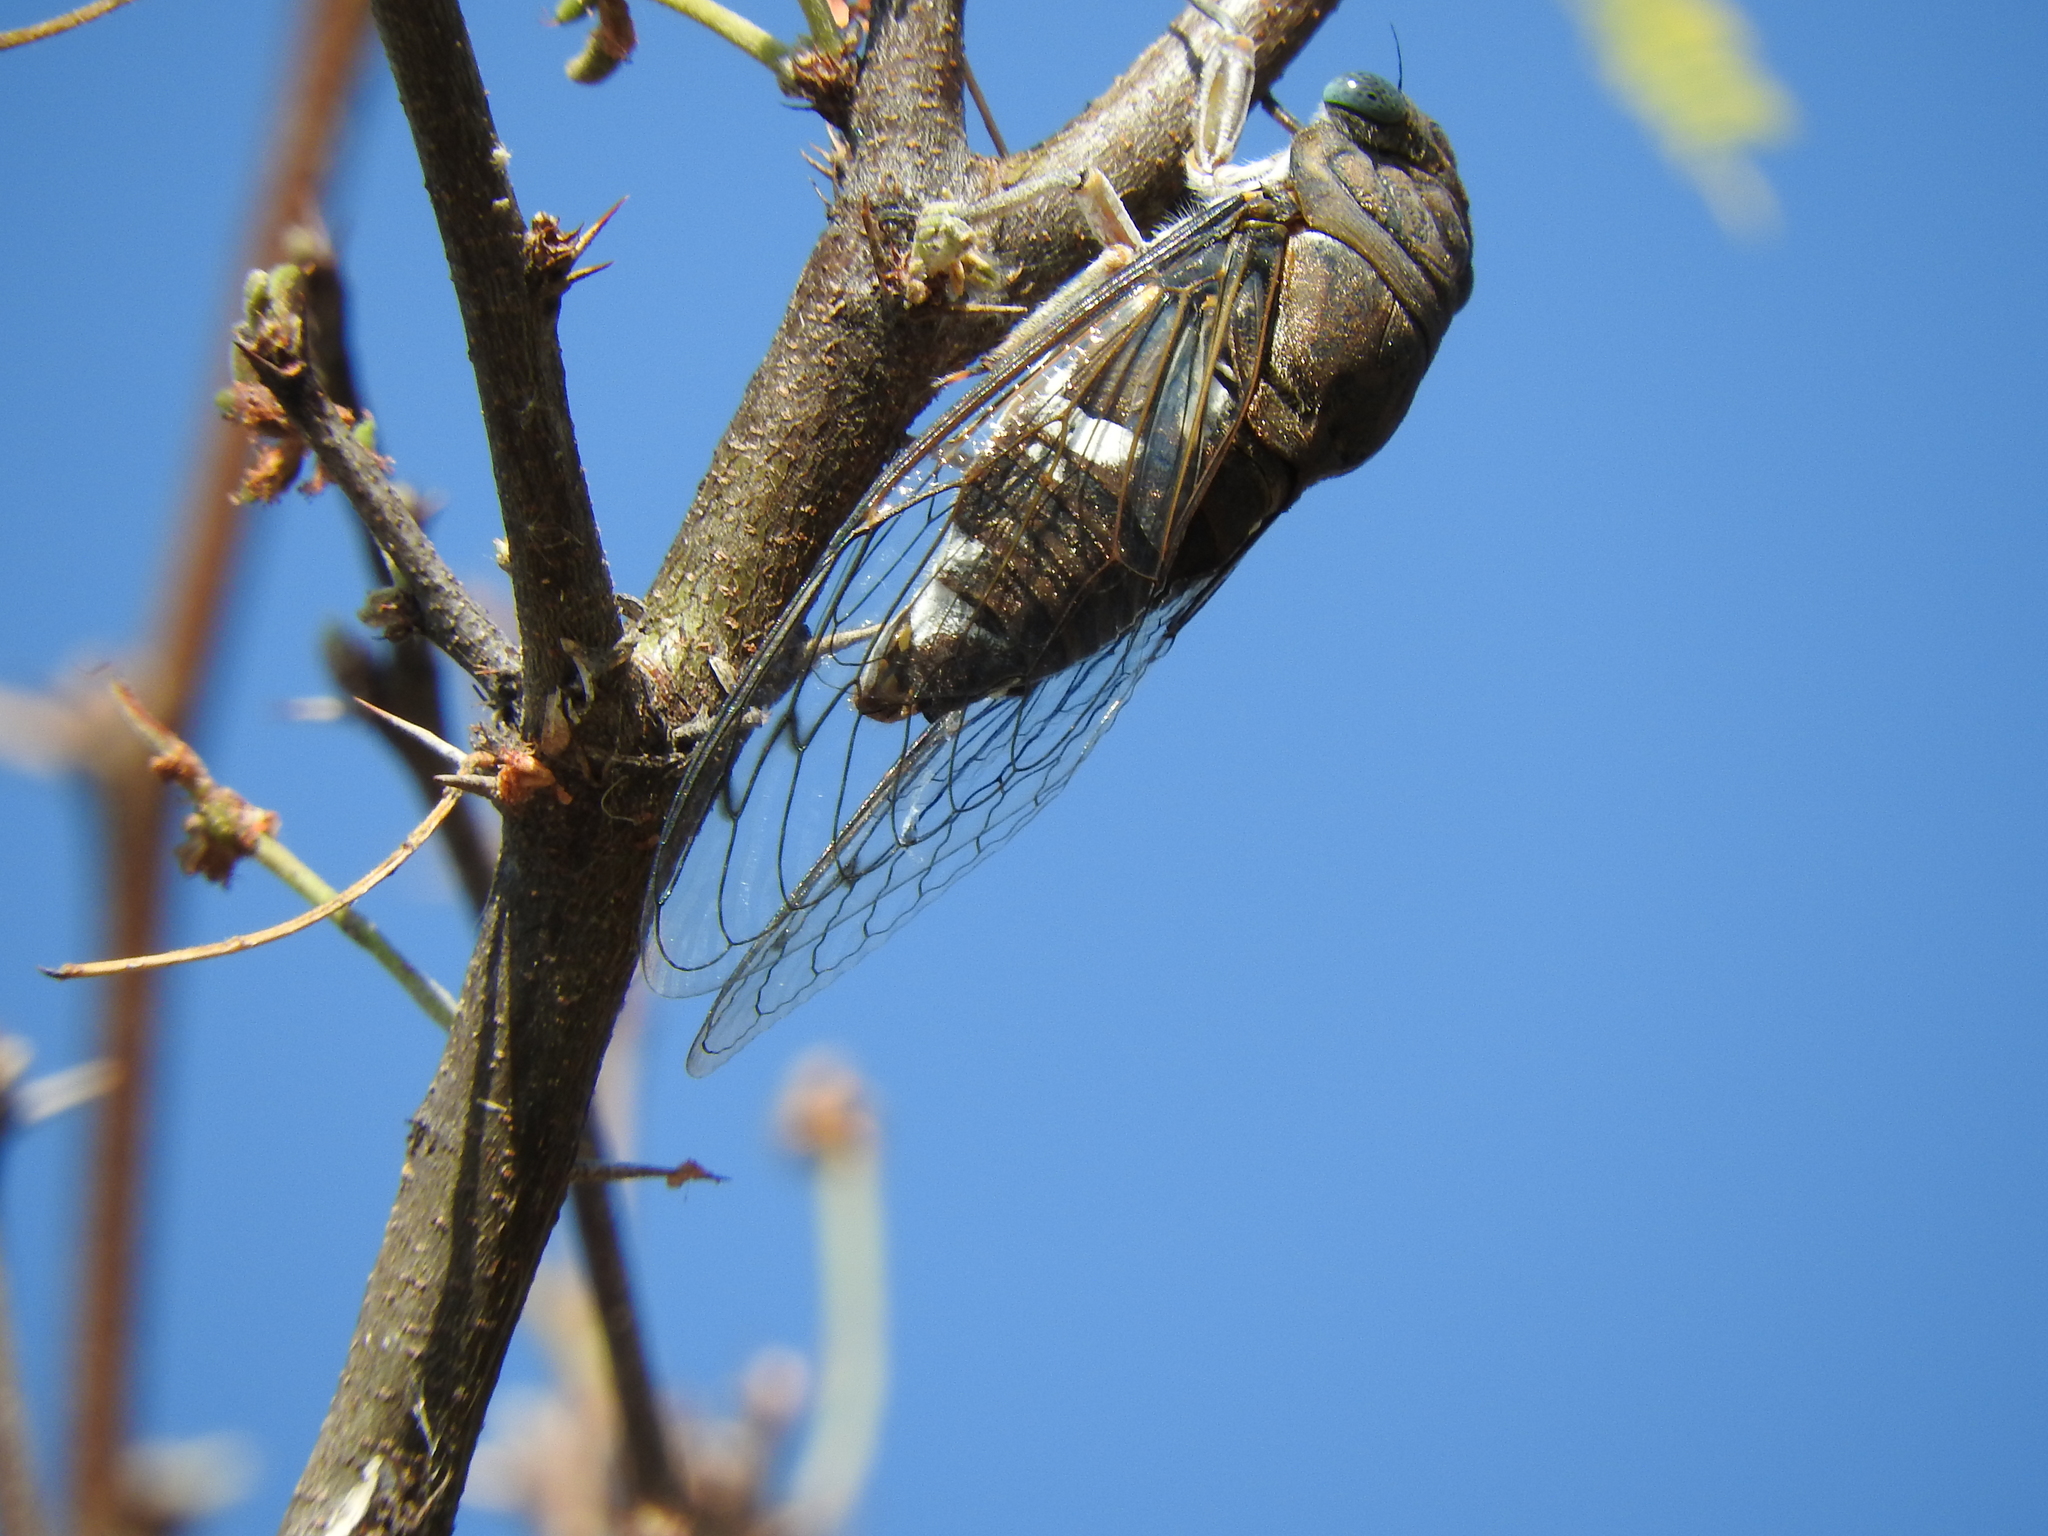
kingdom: Animalia
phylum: Arthropoda
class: Insecta
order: Hemiptera
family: Cicadidae
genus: Cornuplura
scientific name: Cornuplura curvispinosa
